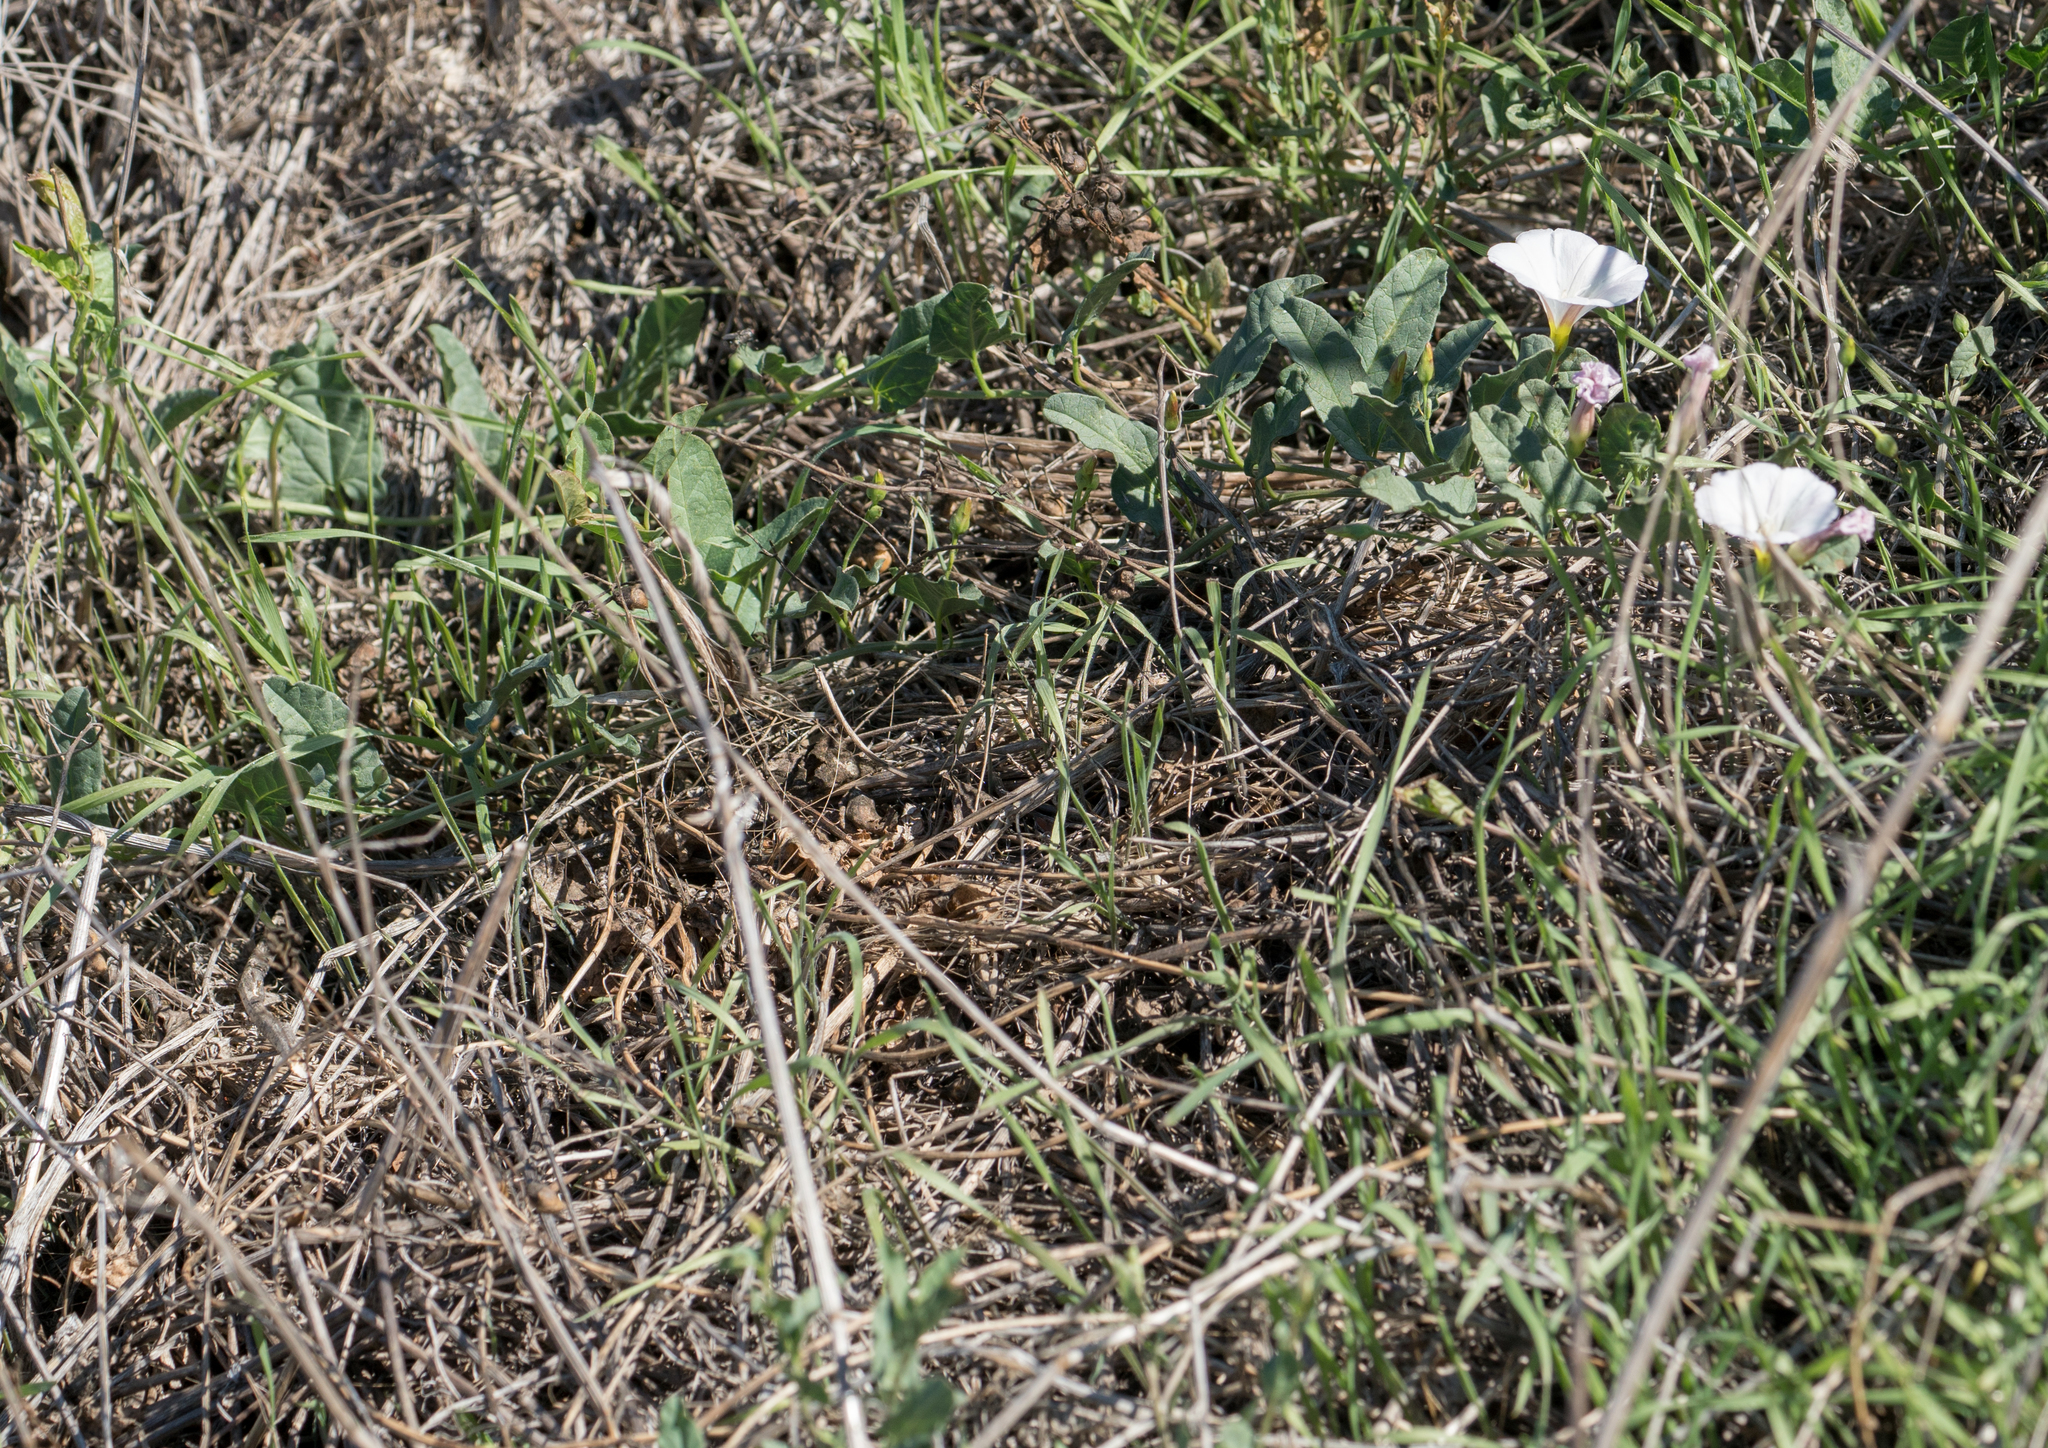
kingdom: Plantae
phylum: Tracheophyta
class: Magnoliopsida
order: Solanales
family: Convolvulaceae
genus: Convolvulus
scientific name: Convolvulus arvensis
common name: Field bindweed
